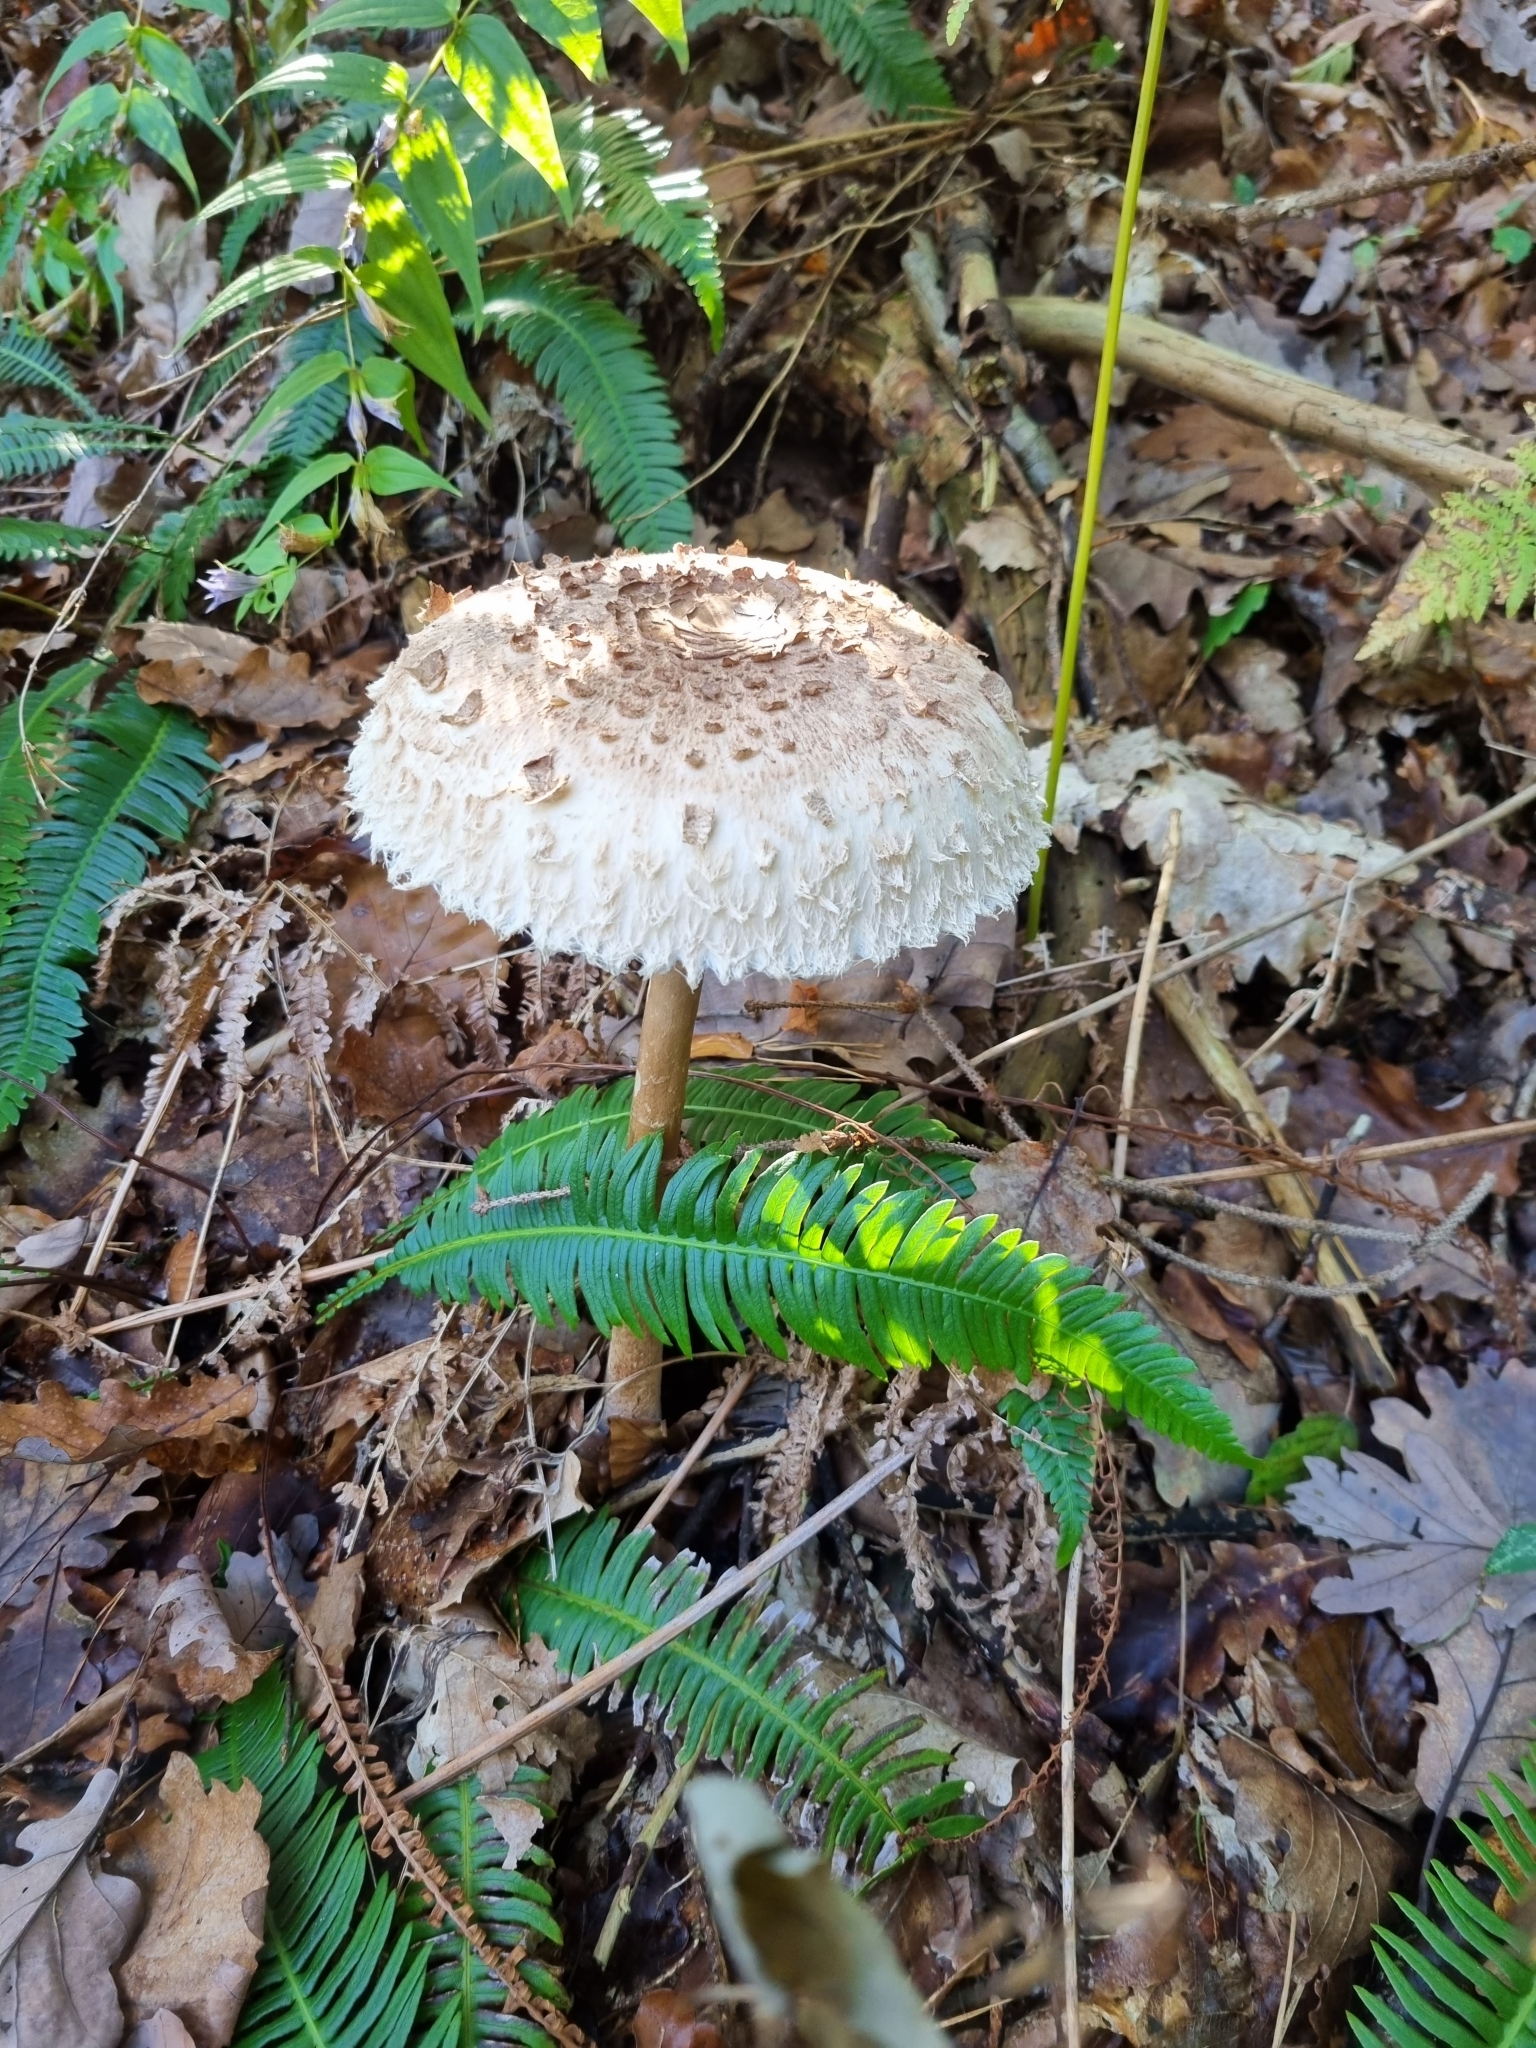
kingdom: Fungi
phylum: Basidiomycota
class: Agaricomycetes
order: Agaricales
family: Agaricaceae
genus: Macrolepiota
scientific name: Macrolepiota procera
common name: Parasol
